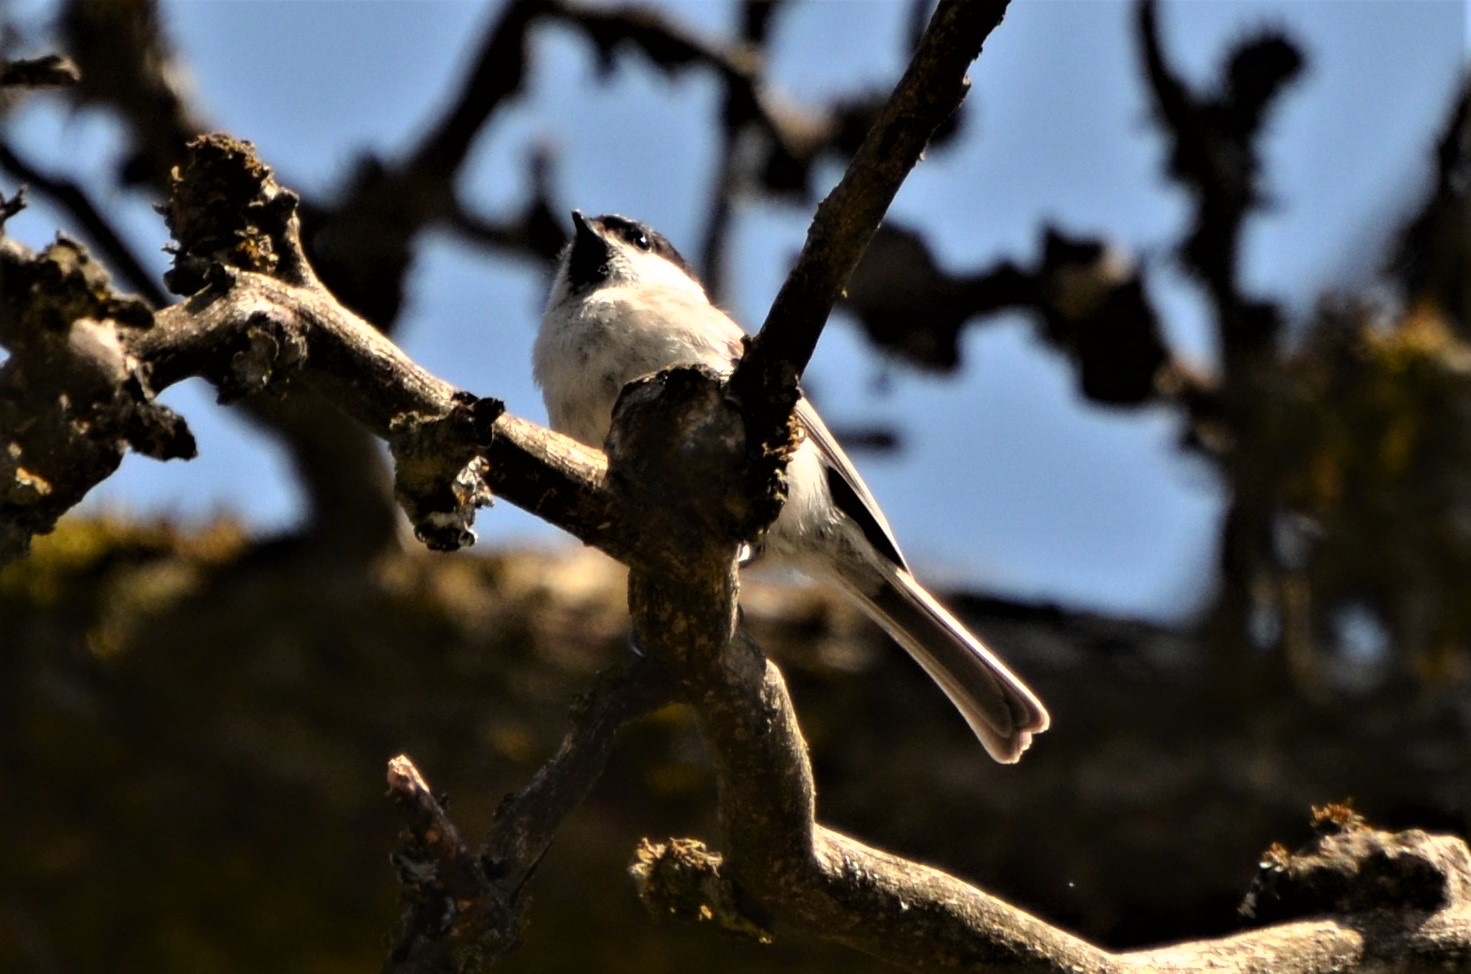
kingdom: Animalia
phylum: Chordata
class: Aves
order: Passeriformes
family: Paridae
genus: Poecile
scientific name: Poecile palustris
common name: Marsh tit
